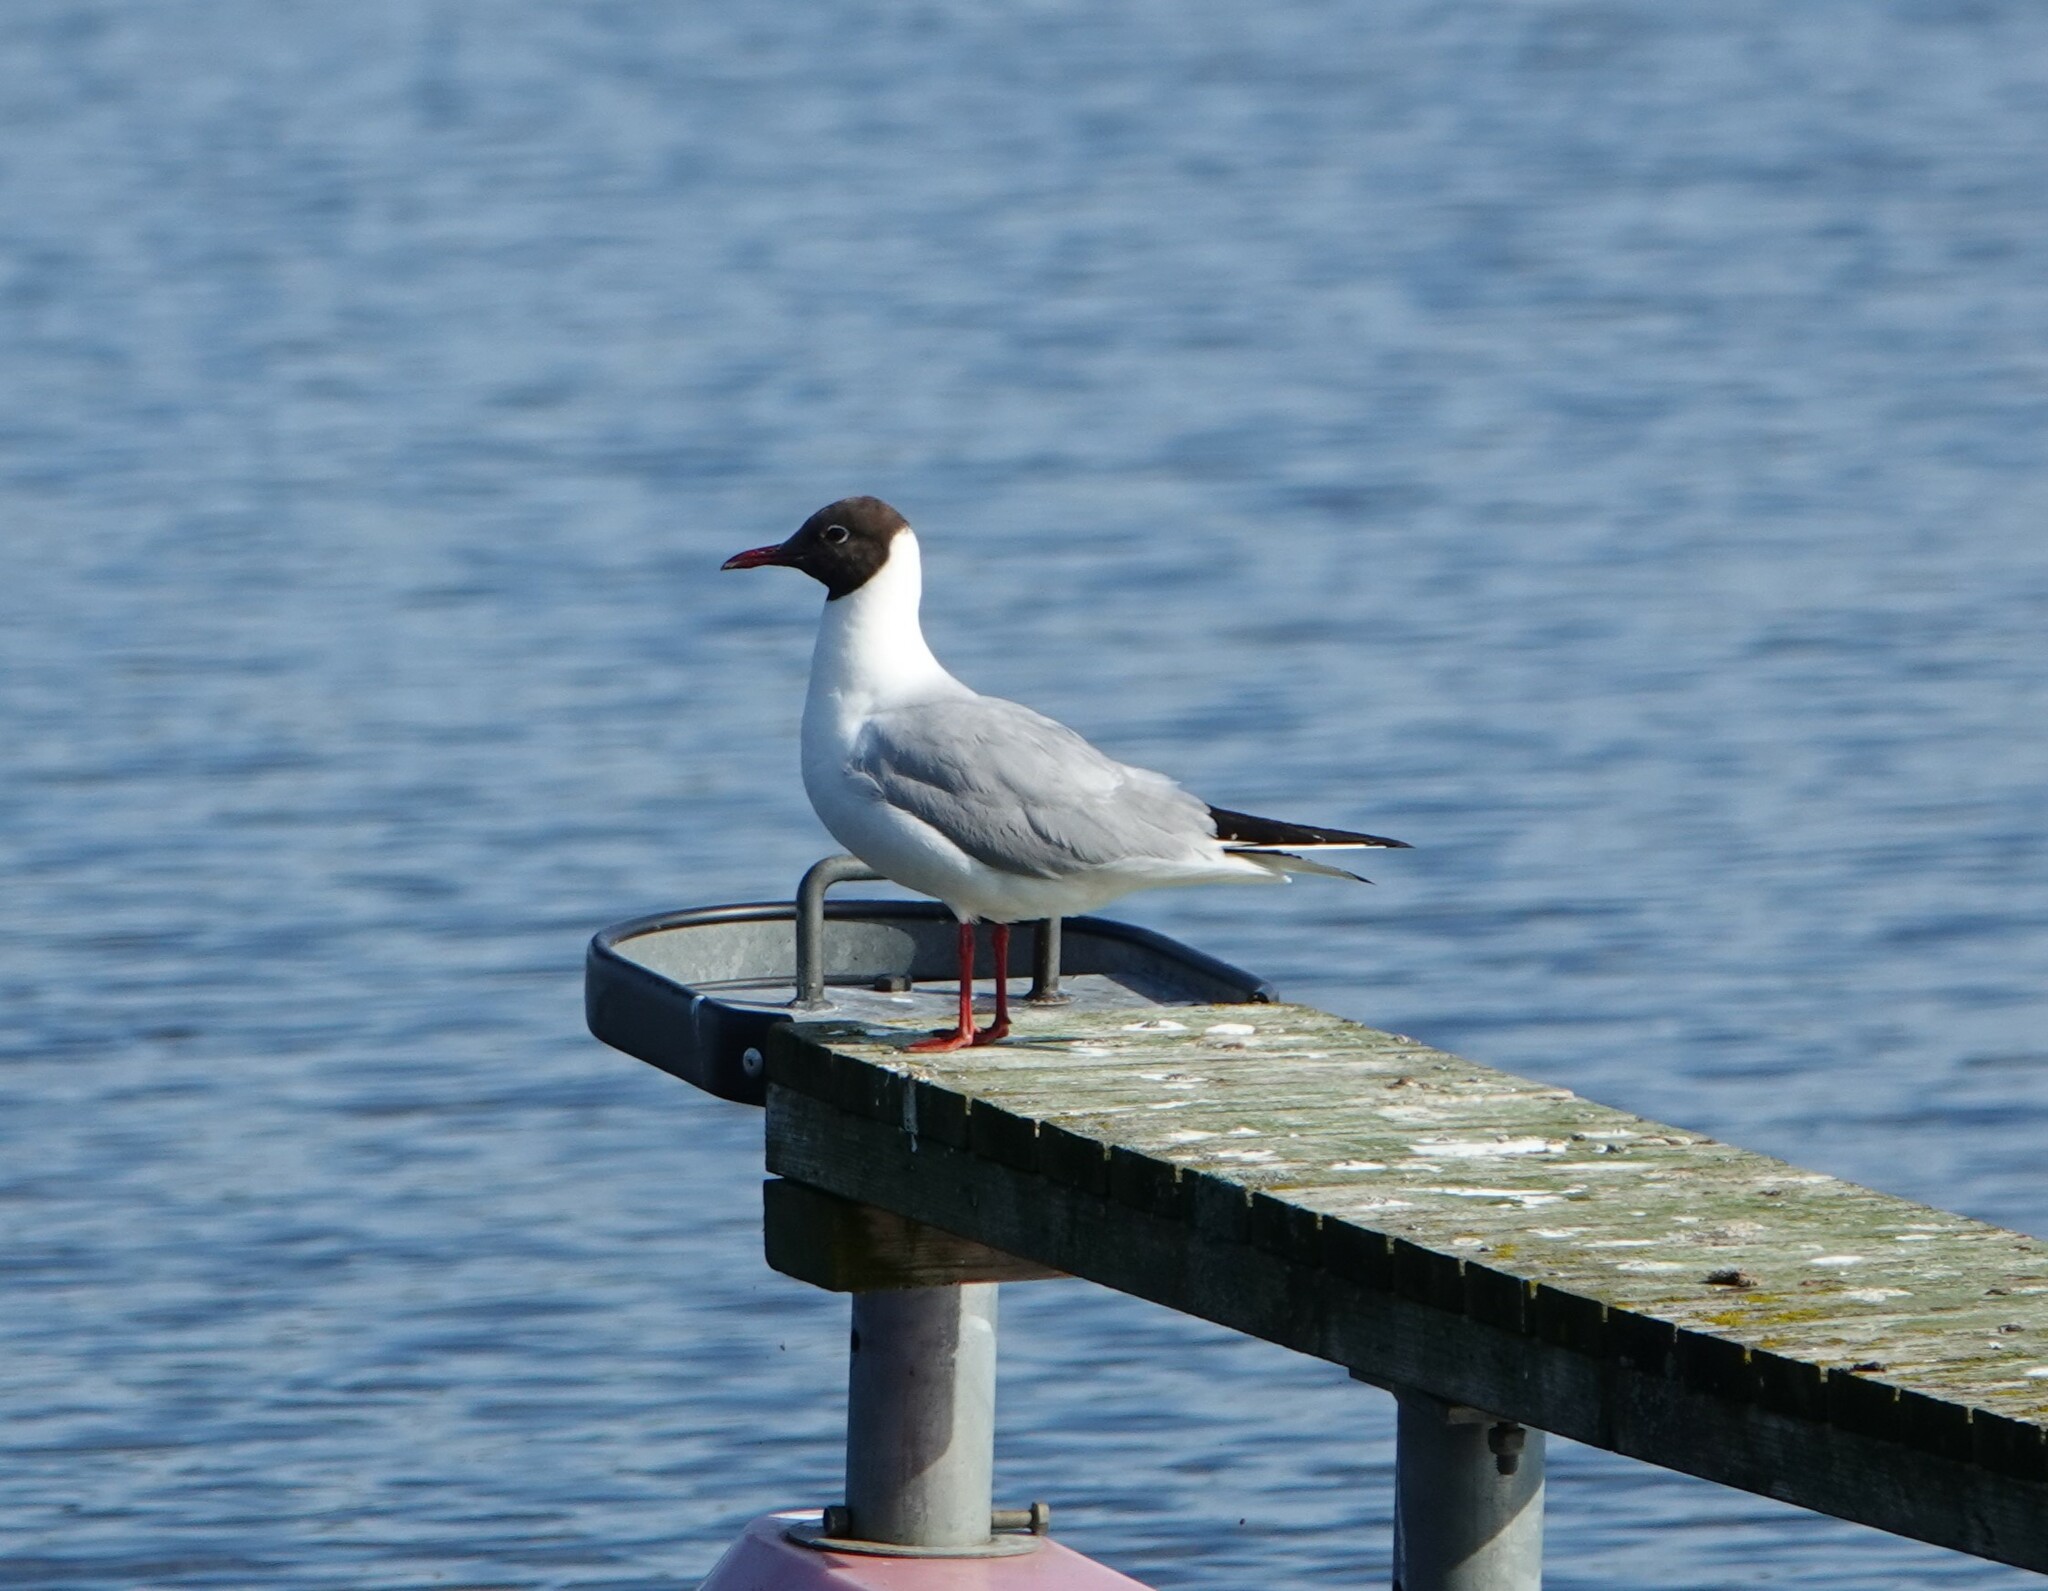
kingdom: Animalia
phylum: Chordata
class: Aves
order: Charadriiformes
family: Laridae
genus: Chroicocephalus
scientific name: Chroicocephalus ridibundus
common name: Black-headed gull
